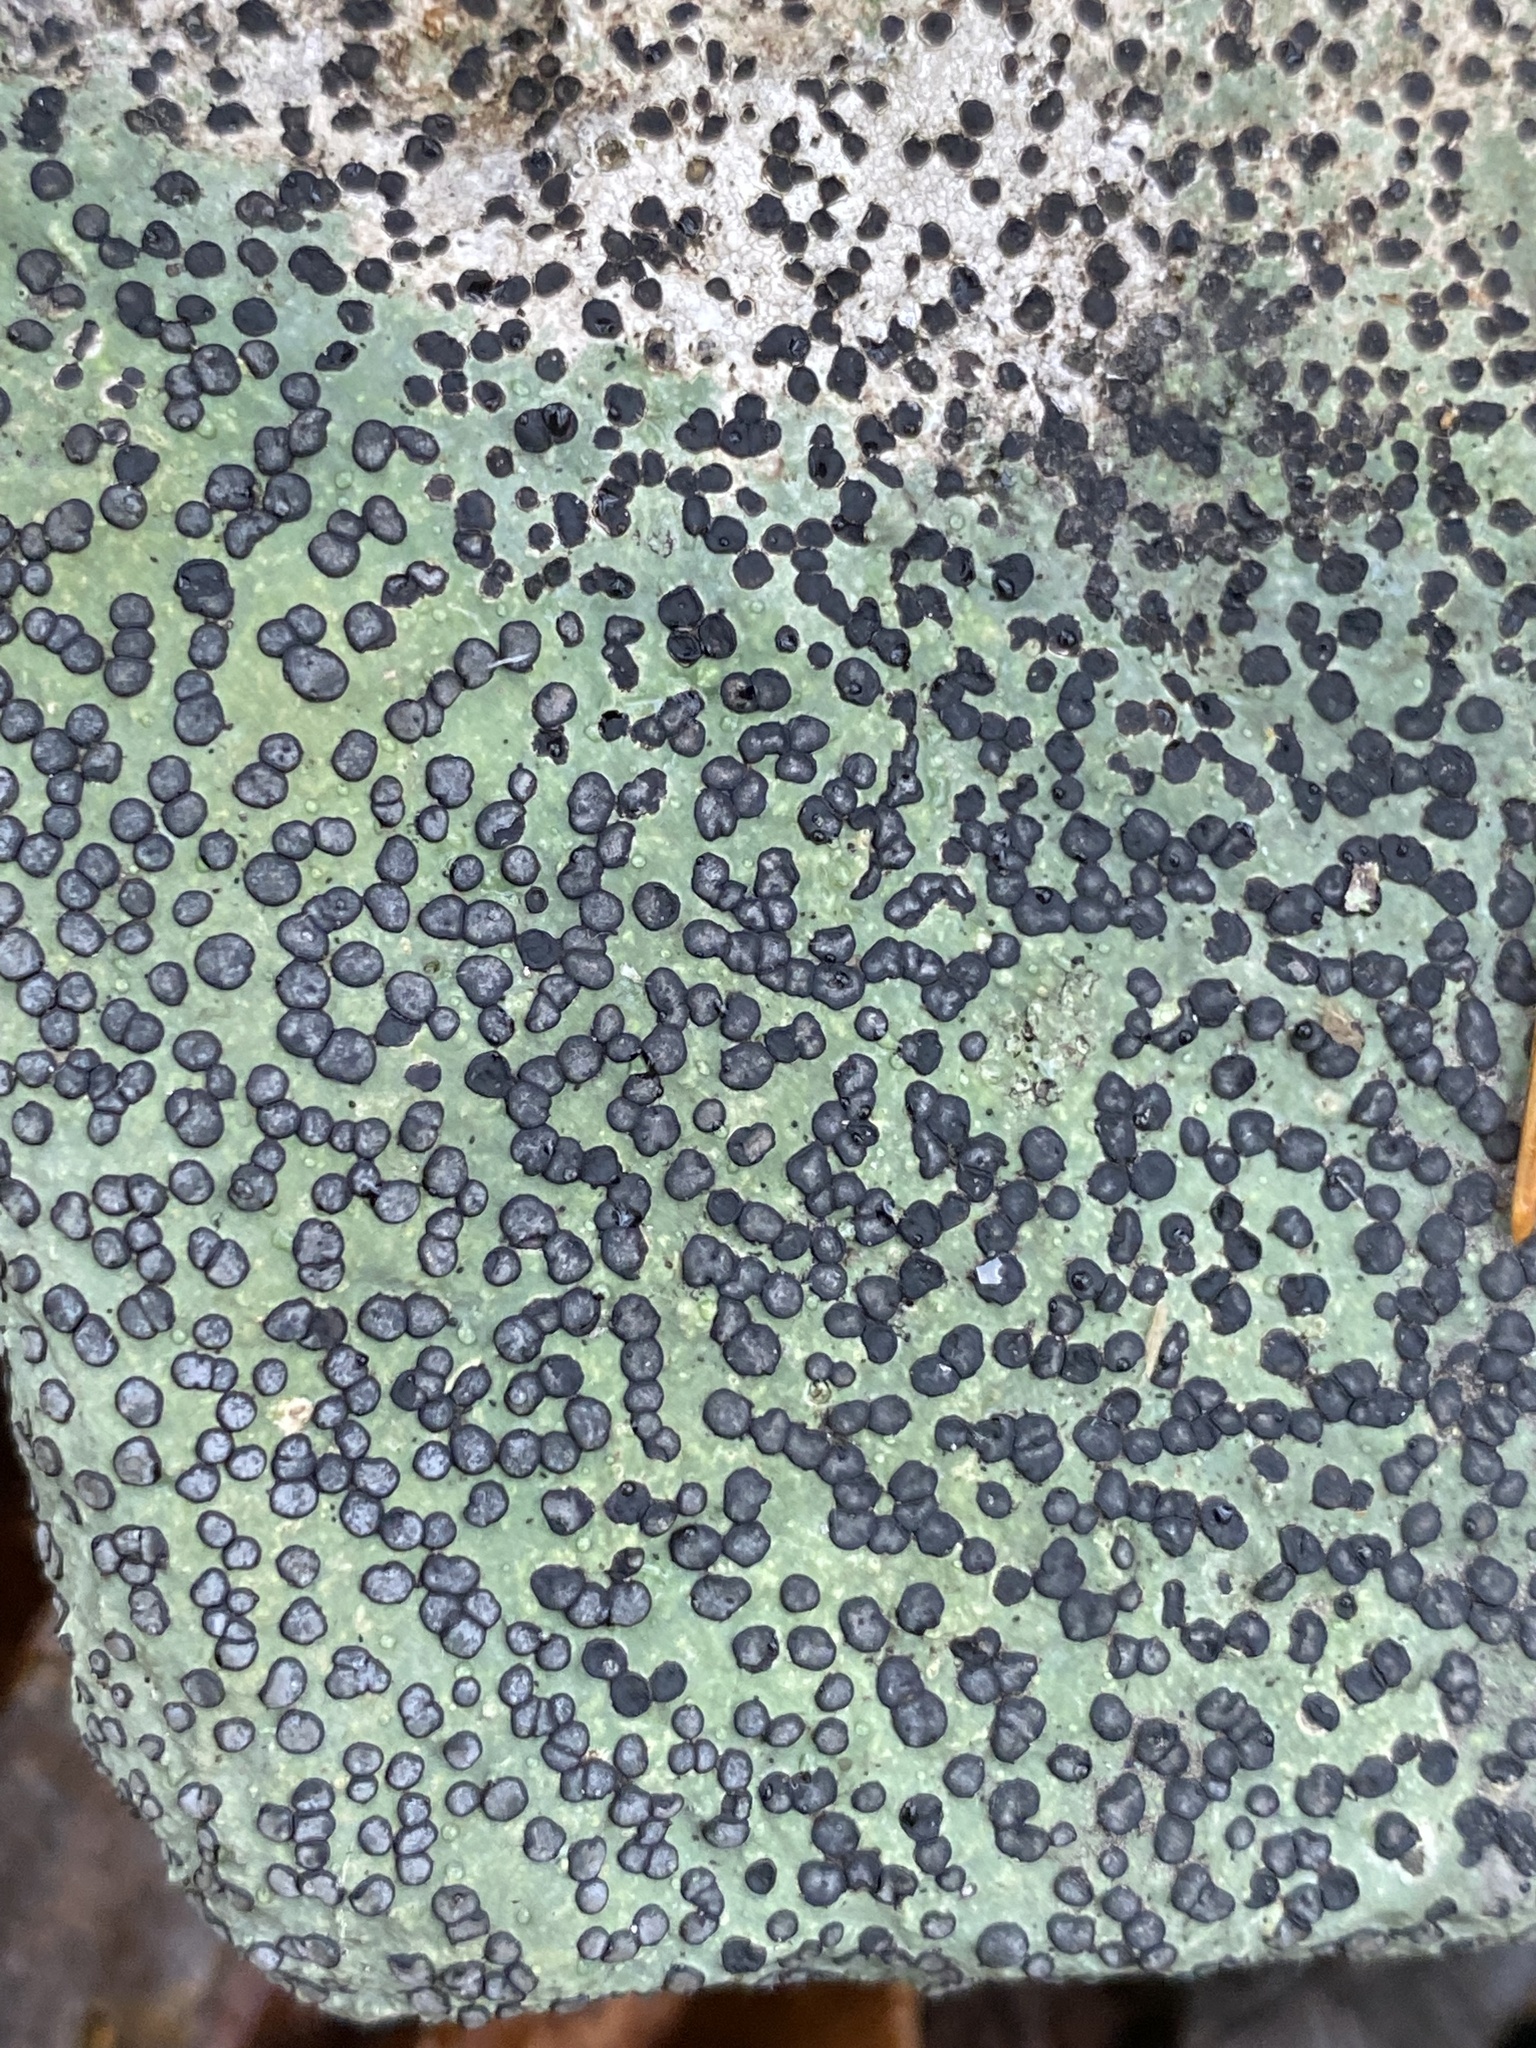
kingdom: Fungi
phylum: Ascomycota
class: Lecanoromycetes
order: Lecideales
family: Lecideaceae
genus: Porpidia
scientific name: Porpidia albocaerulescens
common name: Smokey-eyed boulder lichen
